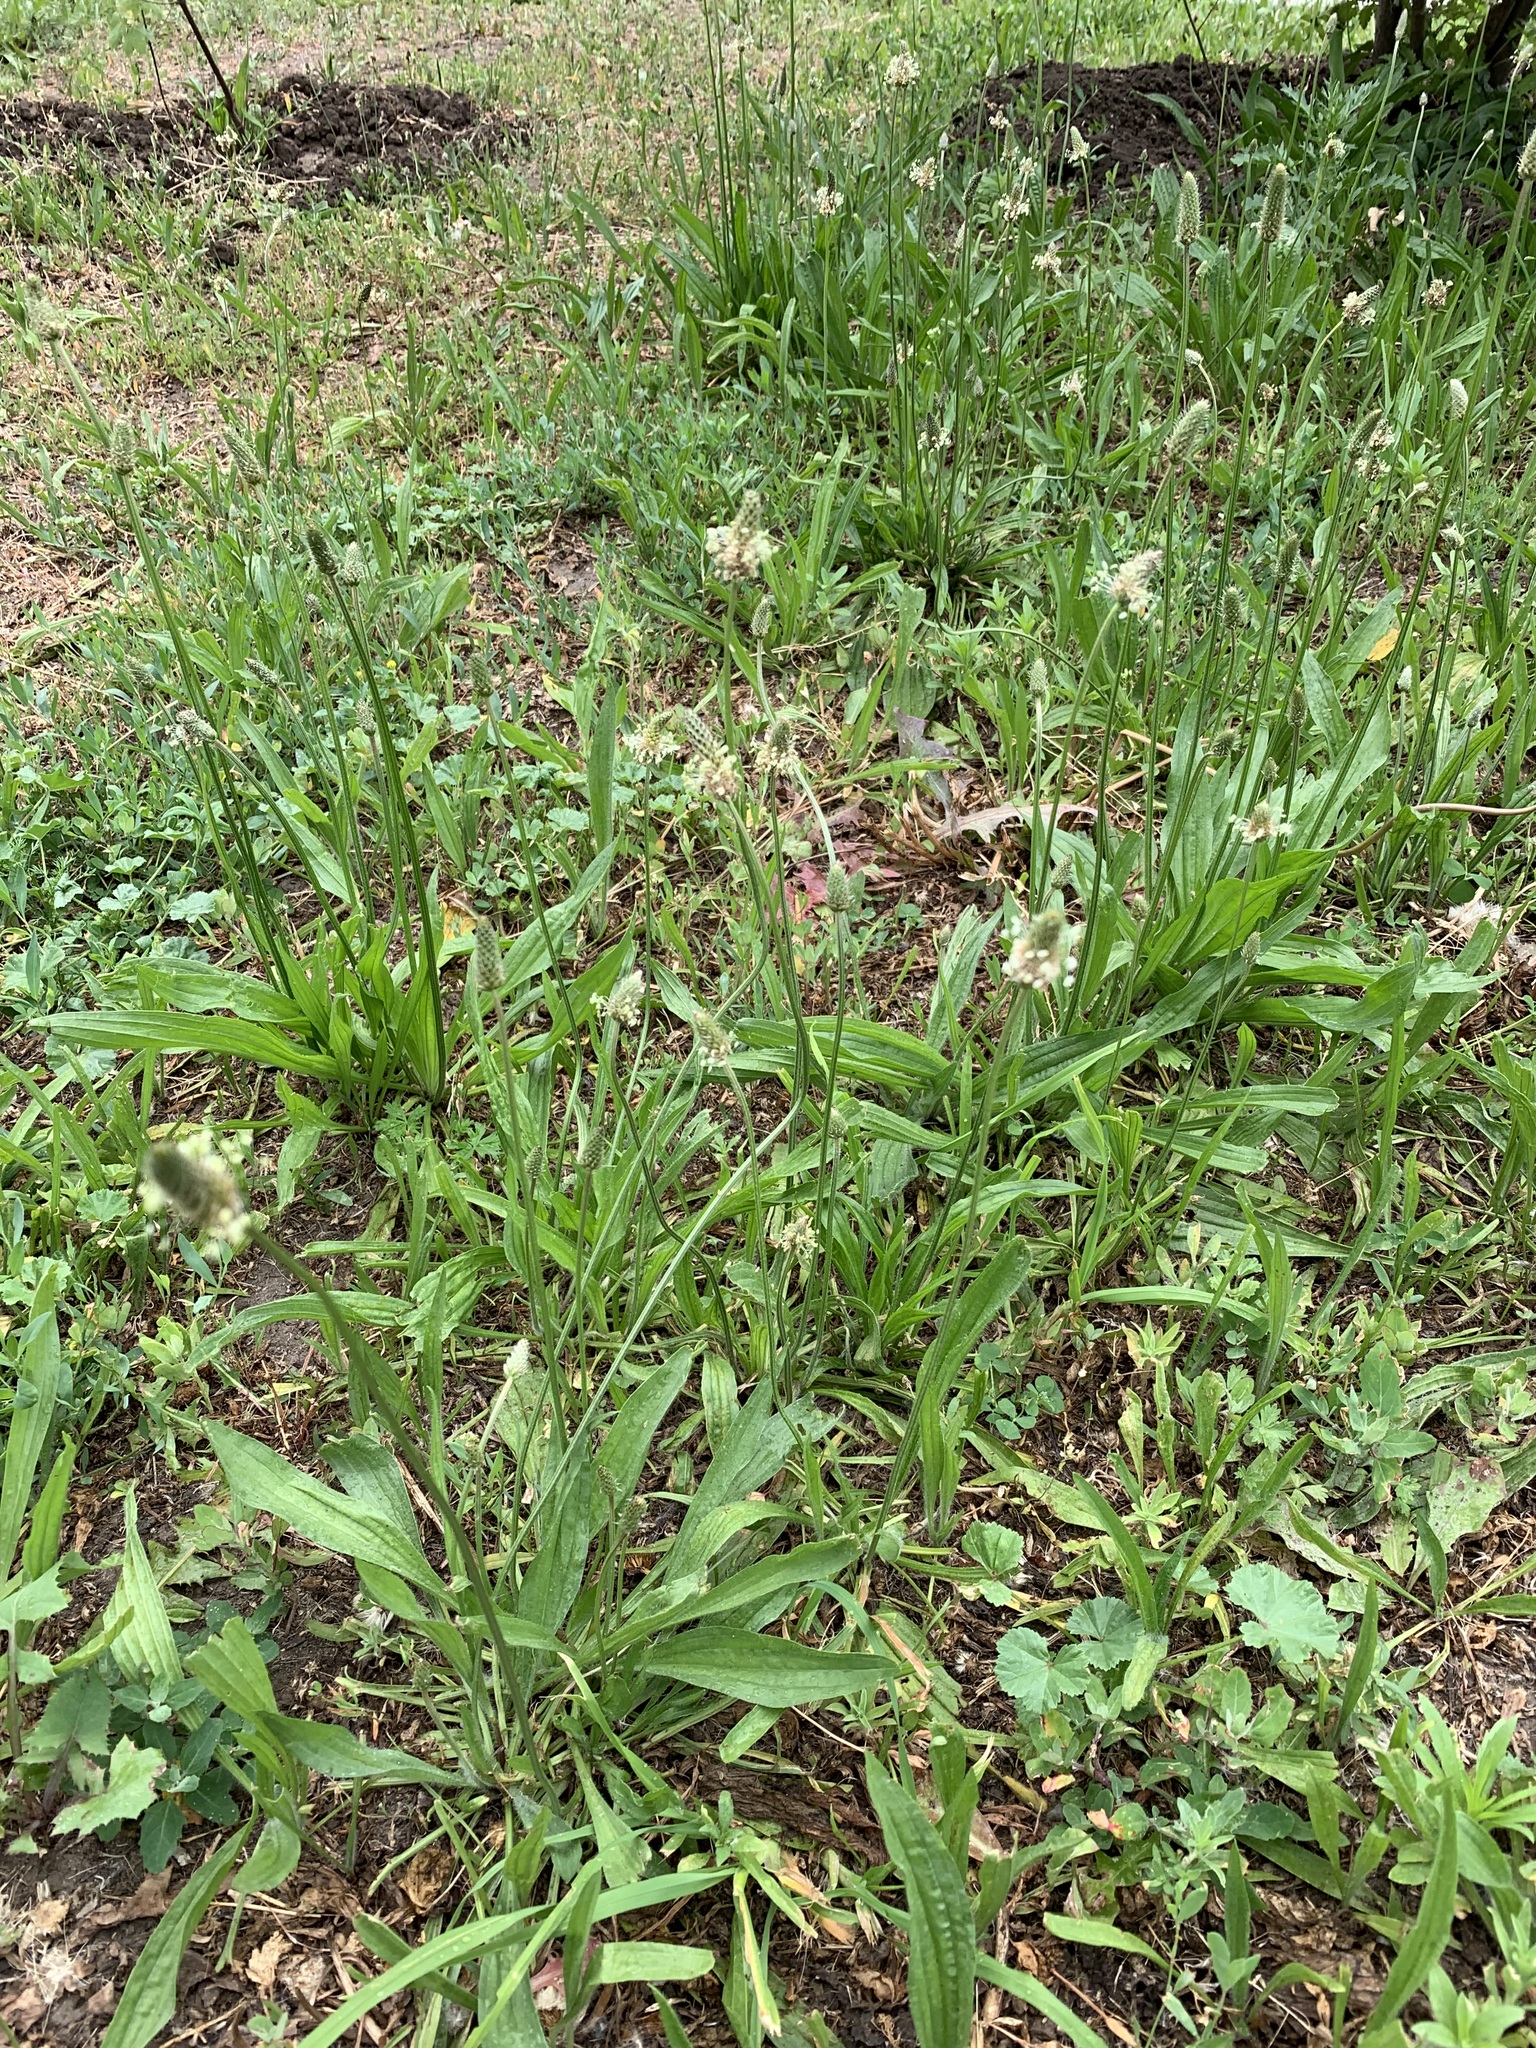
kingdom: Plantae
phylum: Tracheophyta
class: Magnoliopsida
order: Lamiales
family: Plantaginaceae
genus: Plantago
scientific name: Plantago lanceolata
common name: Ribwort plantain
